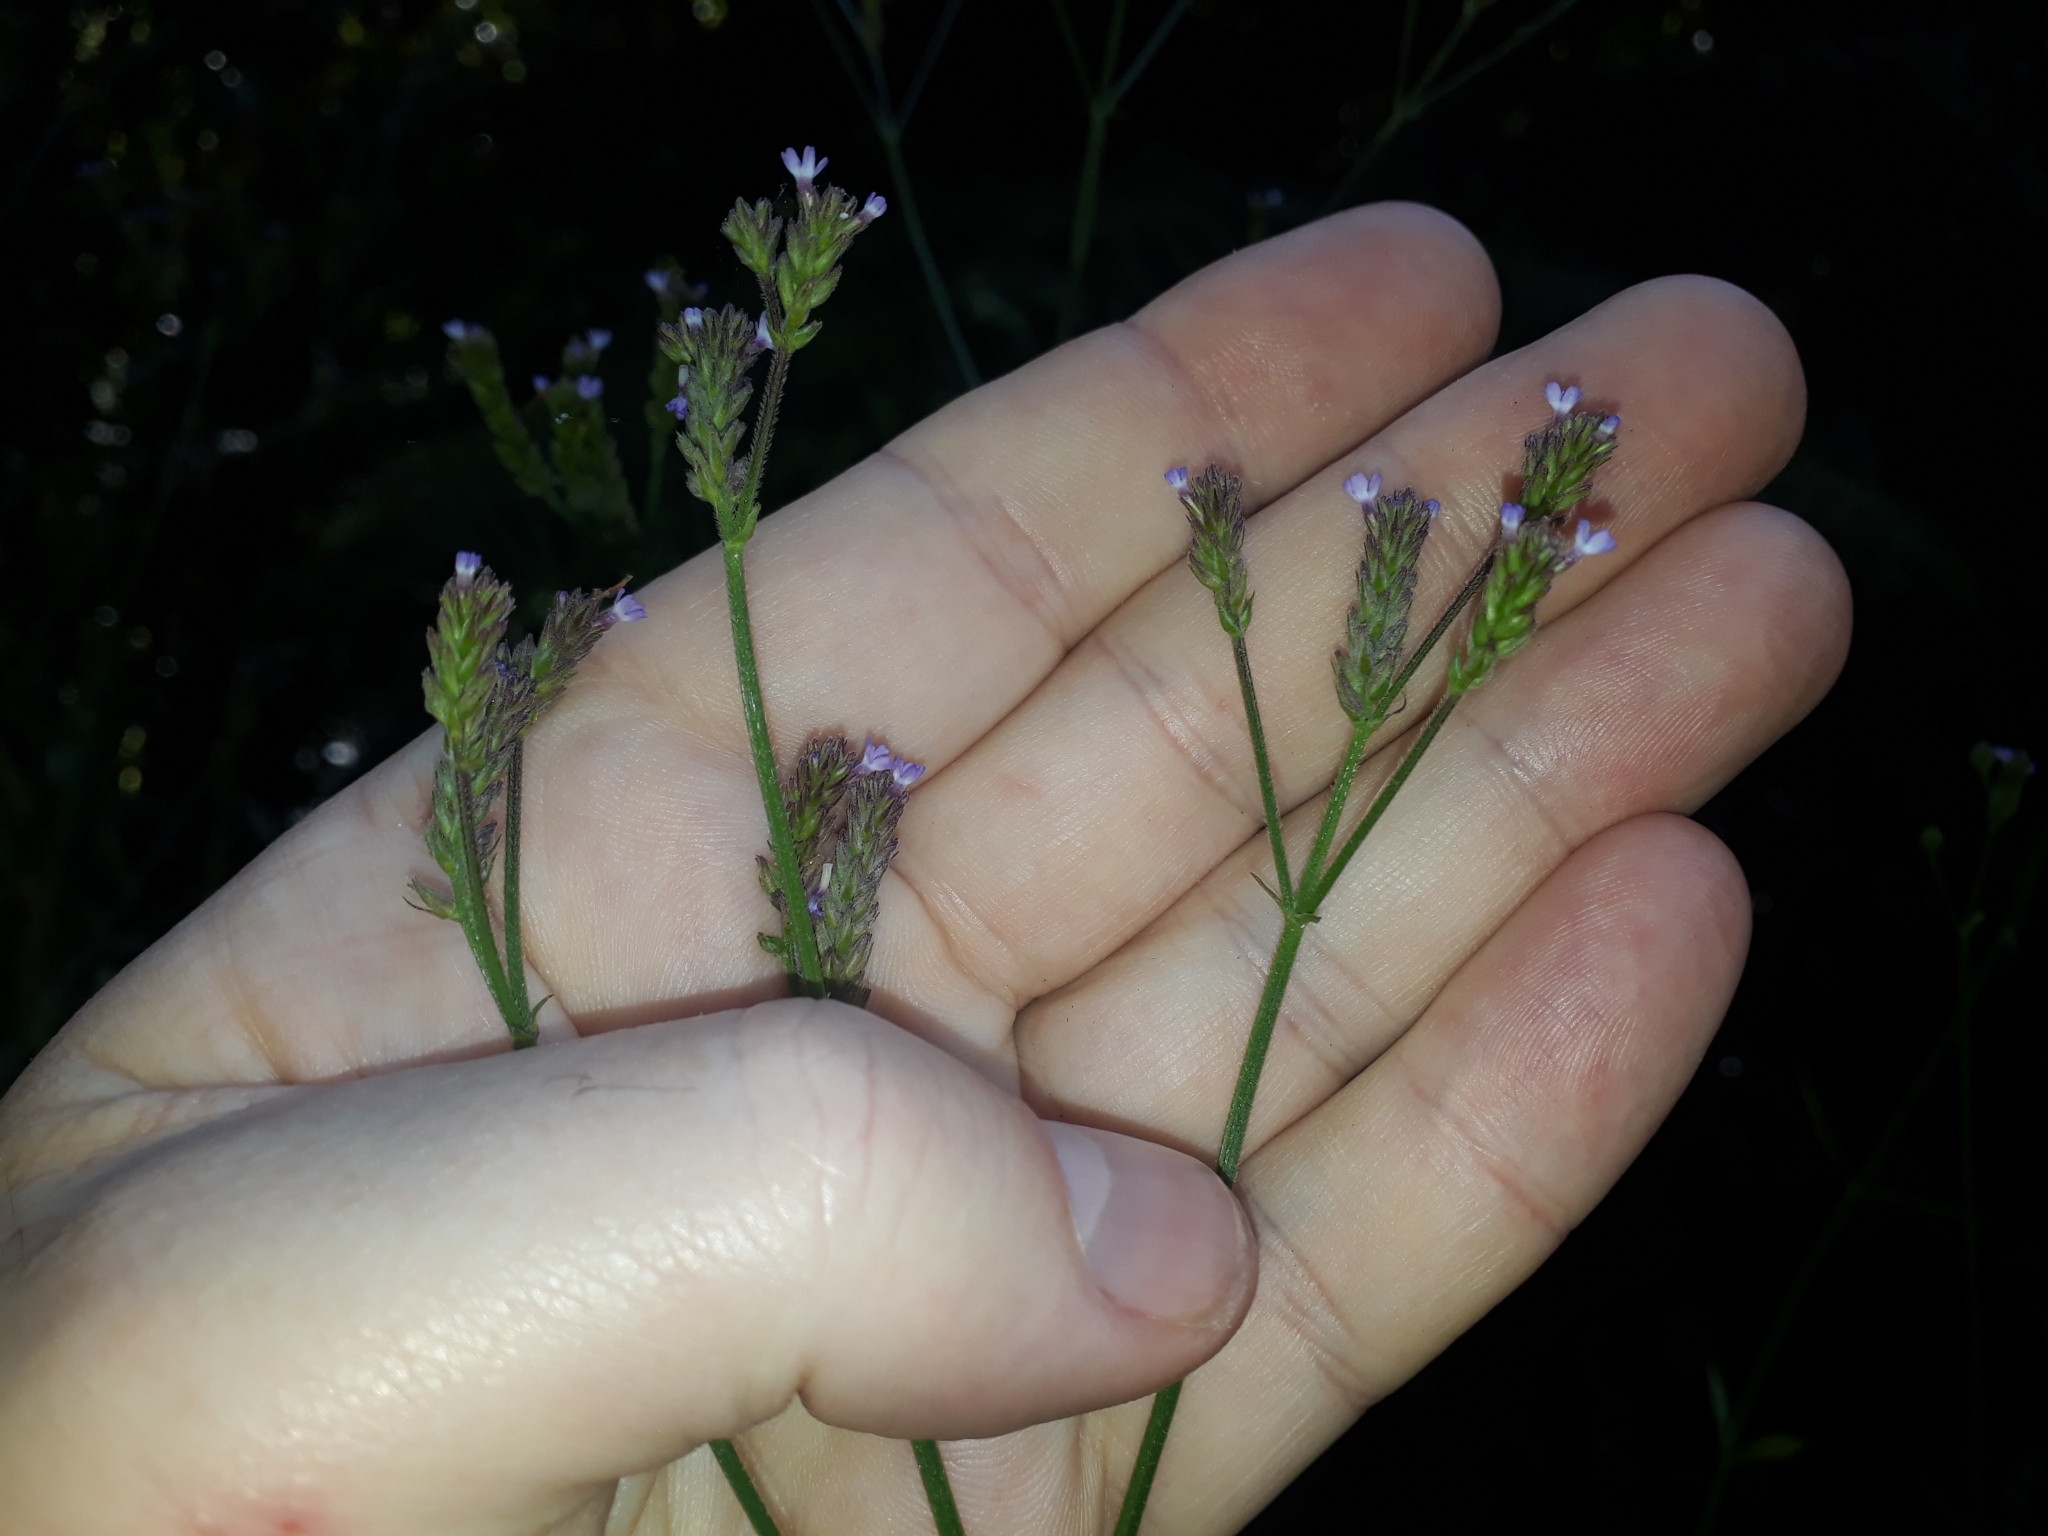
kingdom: Plantae
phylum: Tracheophyta
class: Magnoliopsida
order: Lamiales
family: Verbenaceae
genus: Verbena
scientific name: Verbena brasiliensis
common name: Brazilian vervain
